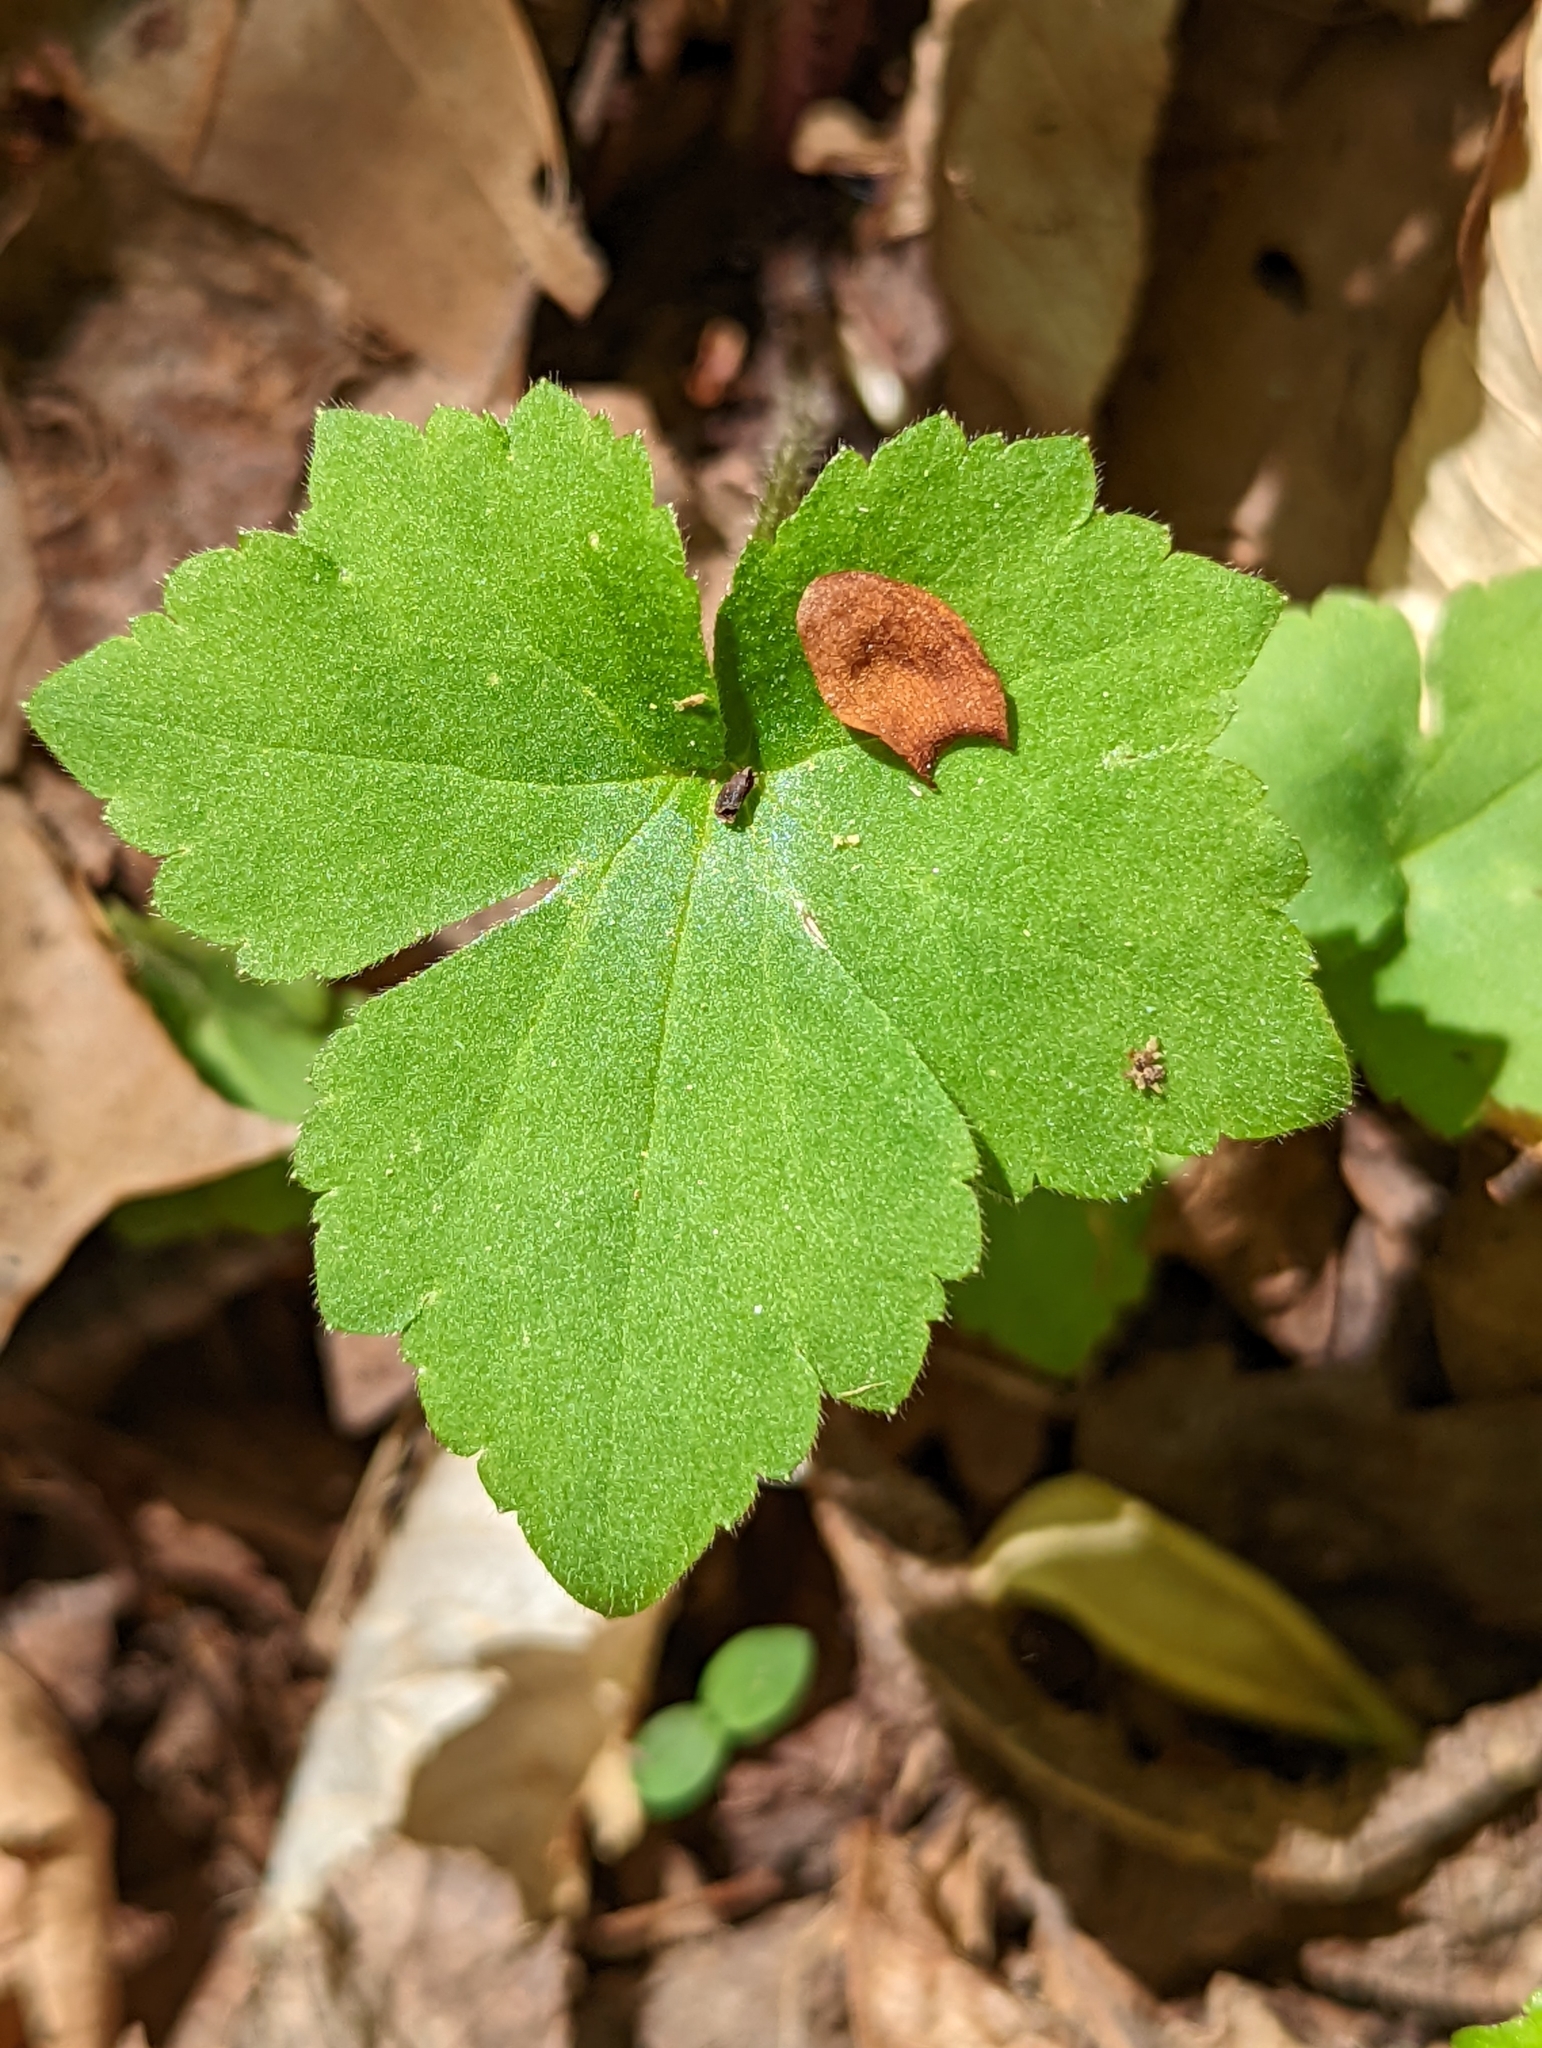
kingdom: Plantae
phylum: Tracheophyta
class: Magnoliopsida
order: Ranunculales
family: Ranunculaceae
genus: Ranunculus
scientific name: Ranunculus recurvatus
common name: Blisterwort
